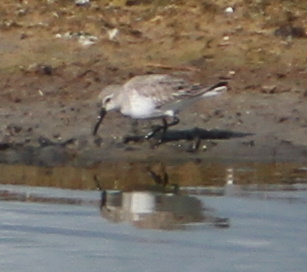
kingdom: Animalia
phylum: Chordata
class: Aves
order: Charadriiformes
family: Scolopacidae
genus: Calidris
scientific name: Calidris alpina
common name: Dunlin
